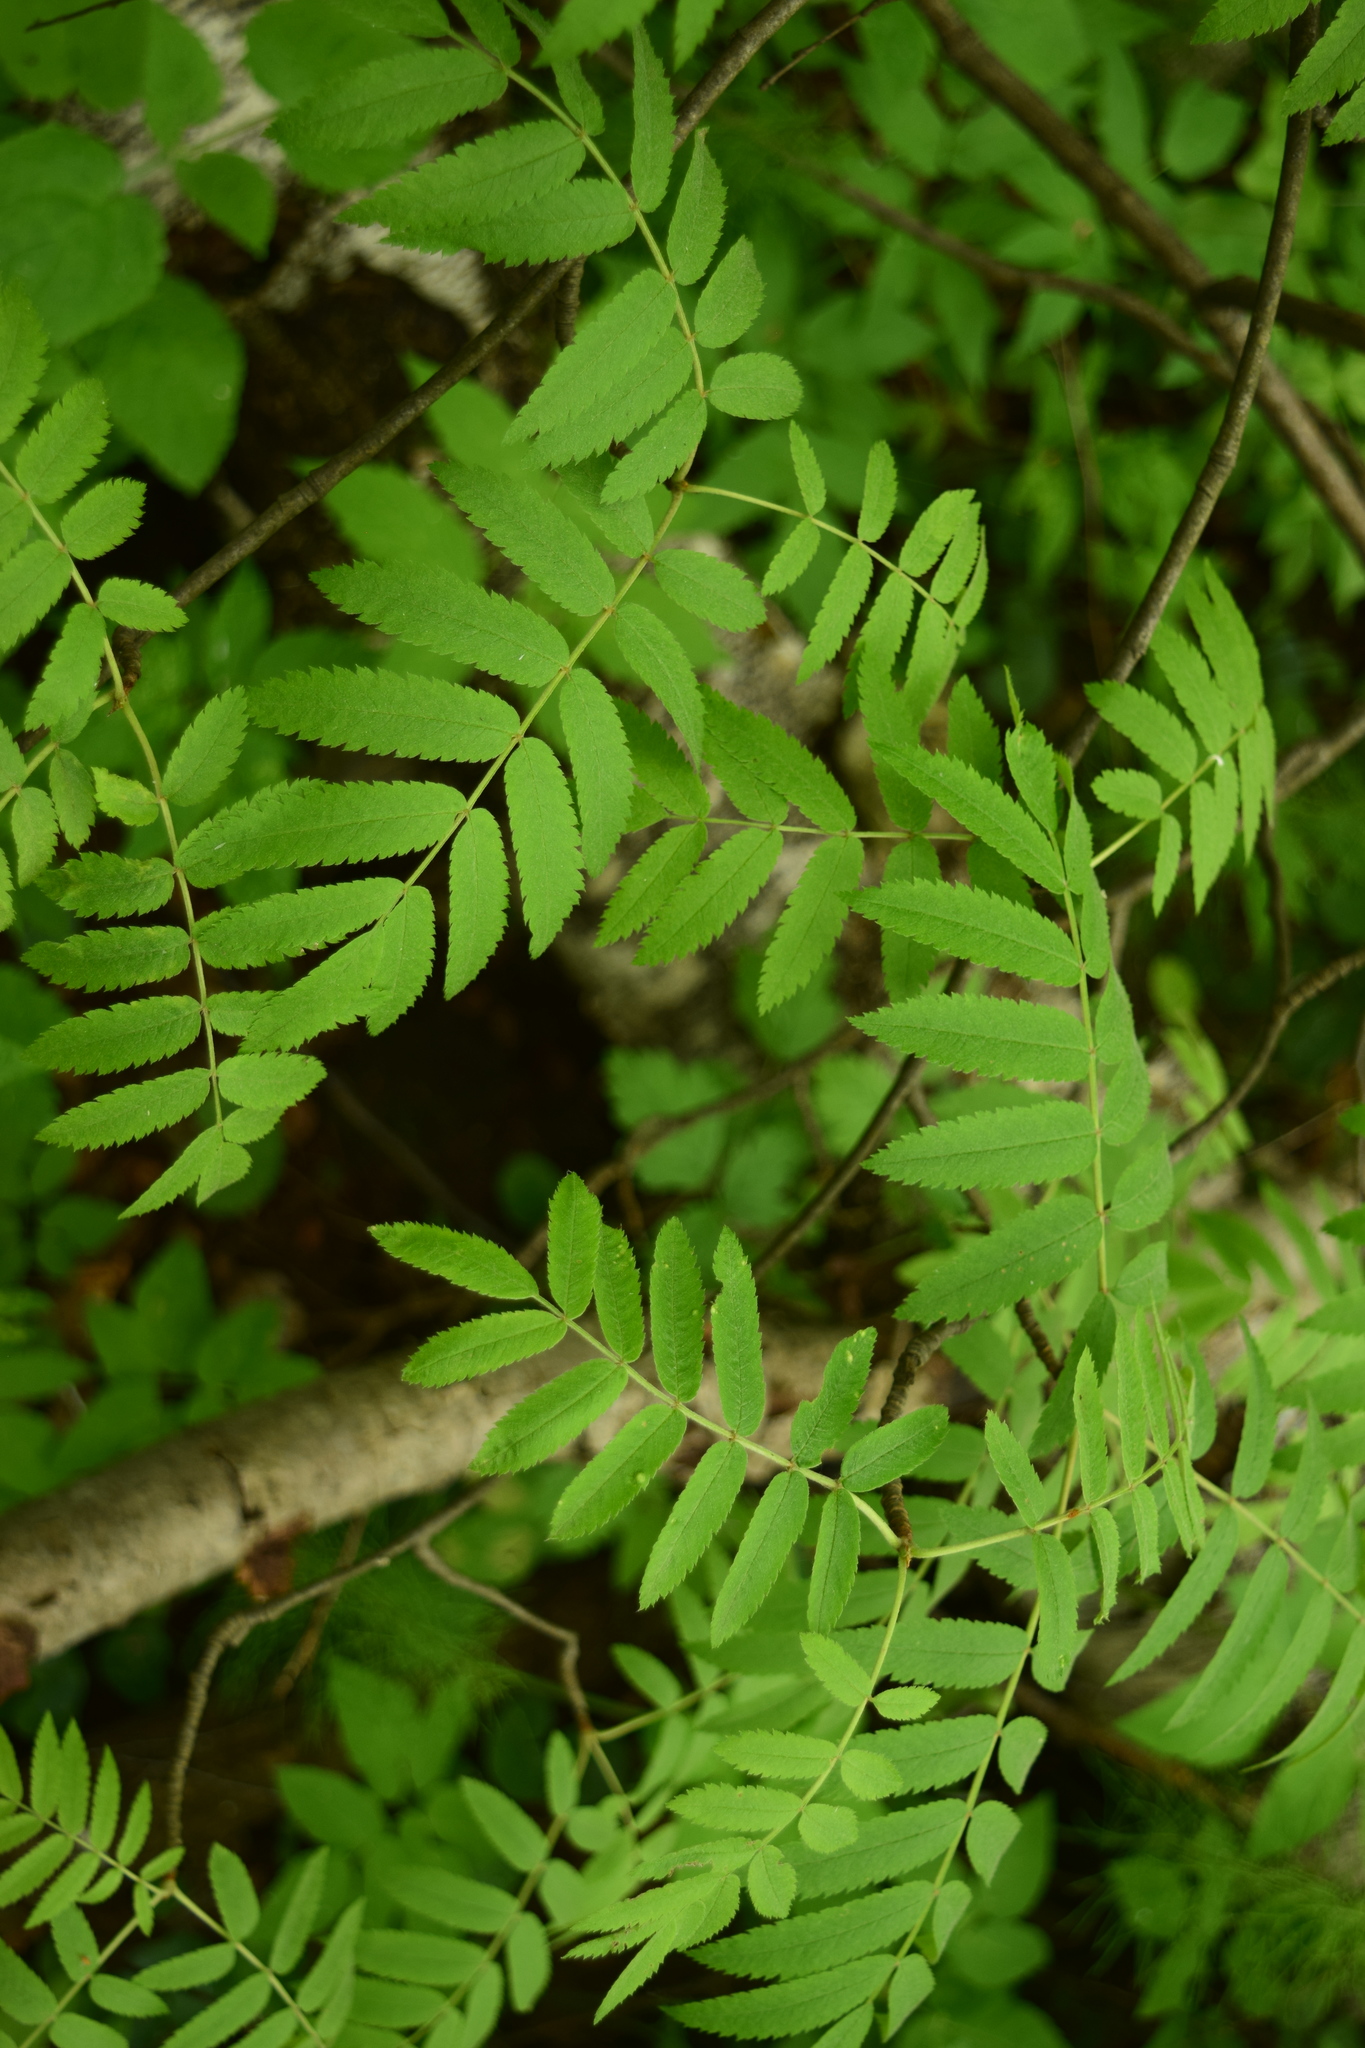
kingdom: Plantae
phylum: Tracheophyta
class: Magnoliopsida
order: Rosales
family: Rosaceae
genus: Sorbus
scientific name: Sorbus aucuparia
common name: Rowan
